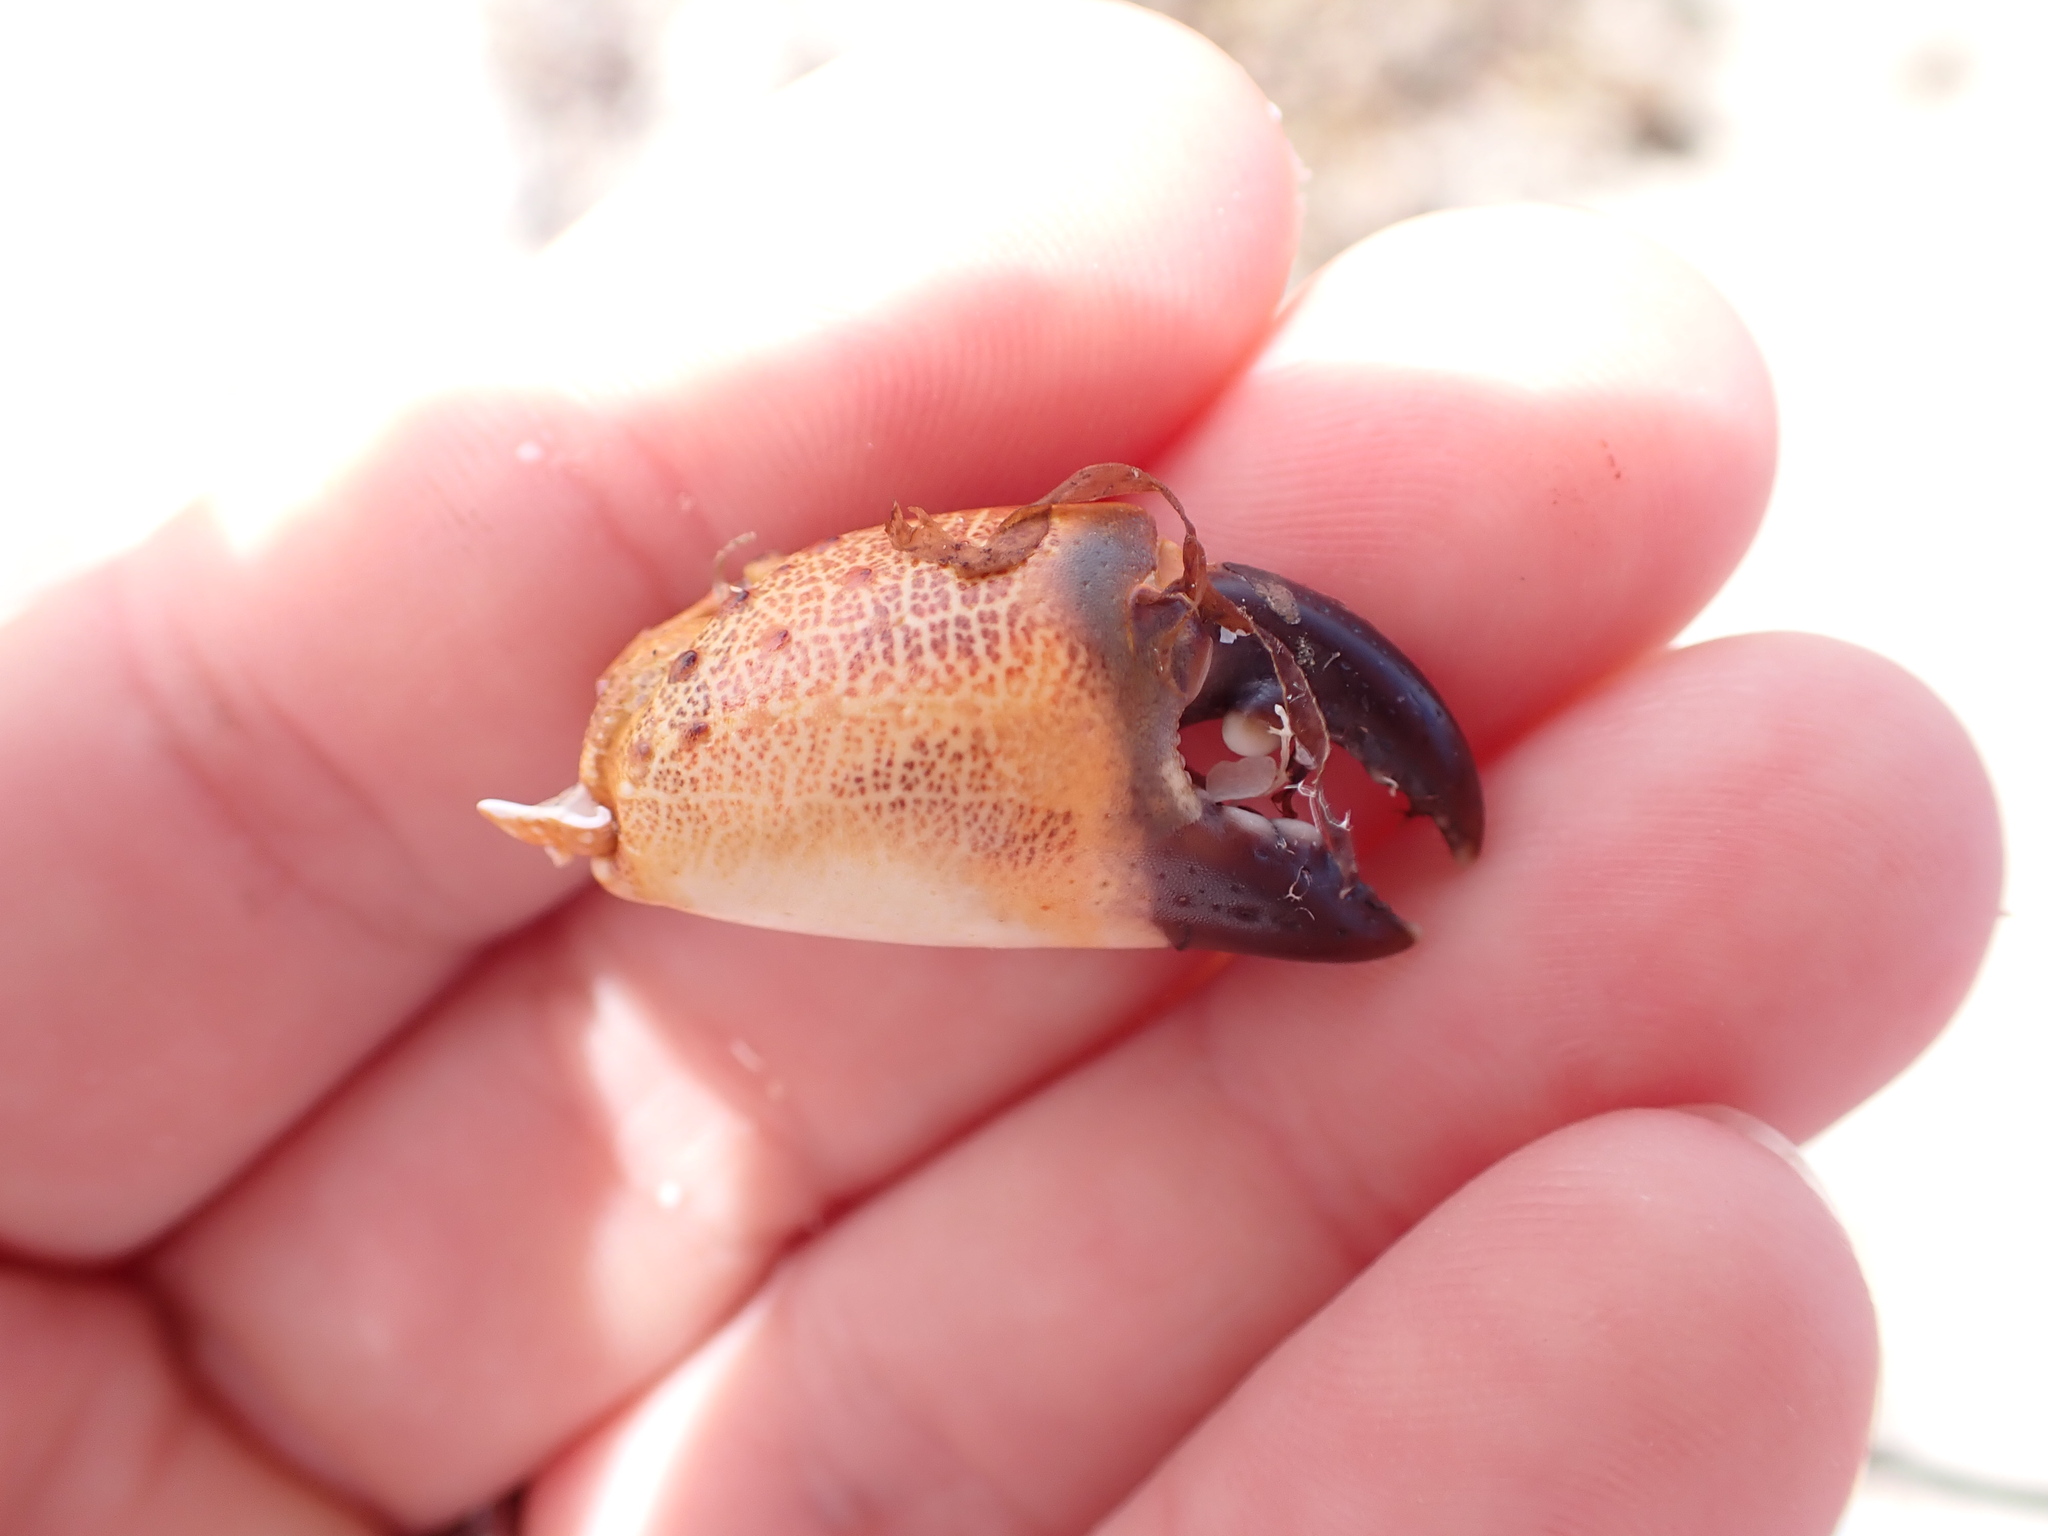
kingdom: Animalia
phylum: Arthropoda
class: Malacostraca
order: Decapoda
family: Eriphiidae
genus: Eriphia
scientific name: Eriphia verrucosa
